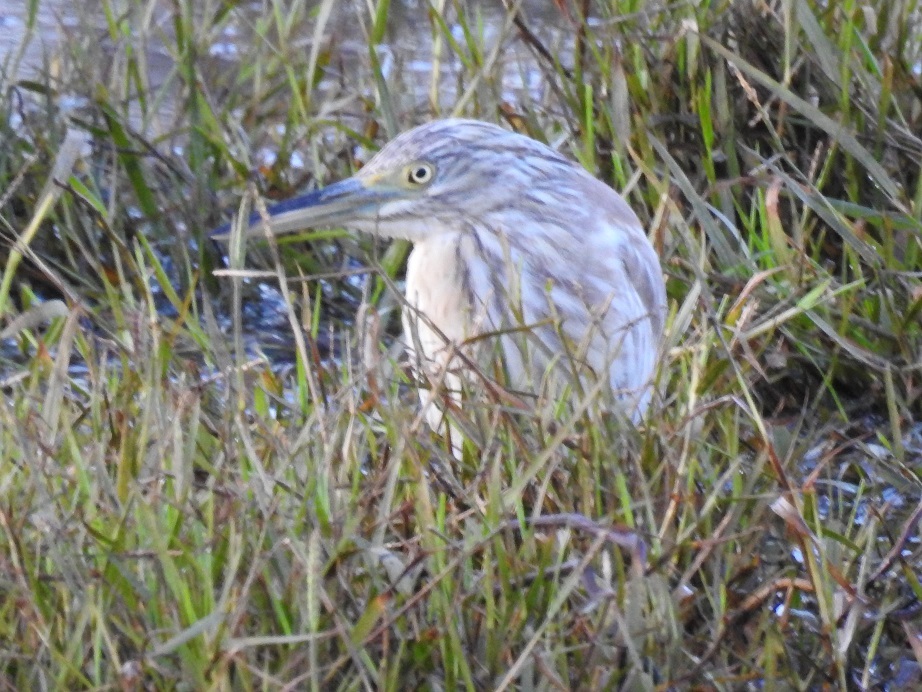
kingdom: Animalia
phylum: Chordata
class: Aves
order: Pelecaniformes
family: Ardeidae
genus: Ardeola
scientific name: Ardeola ralloides
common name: Squacco heron
